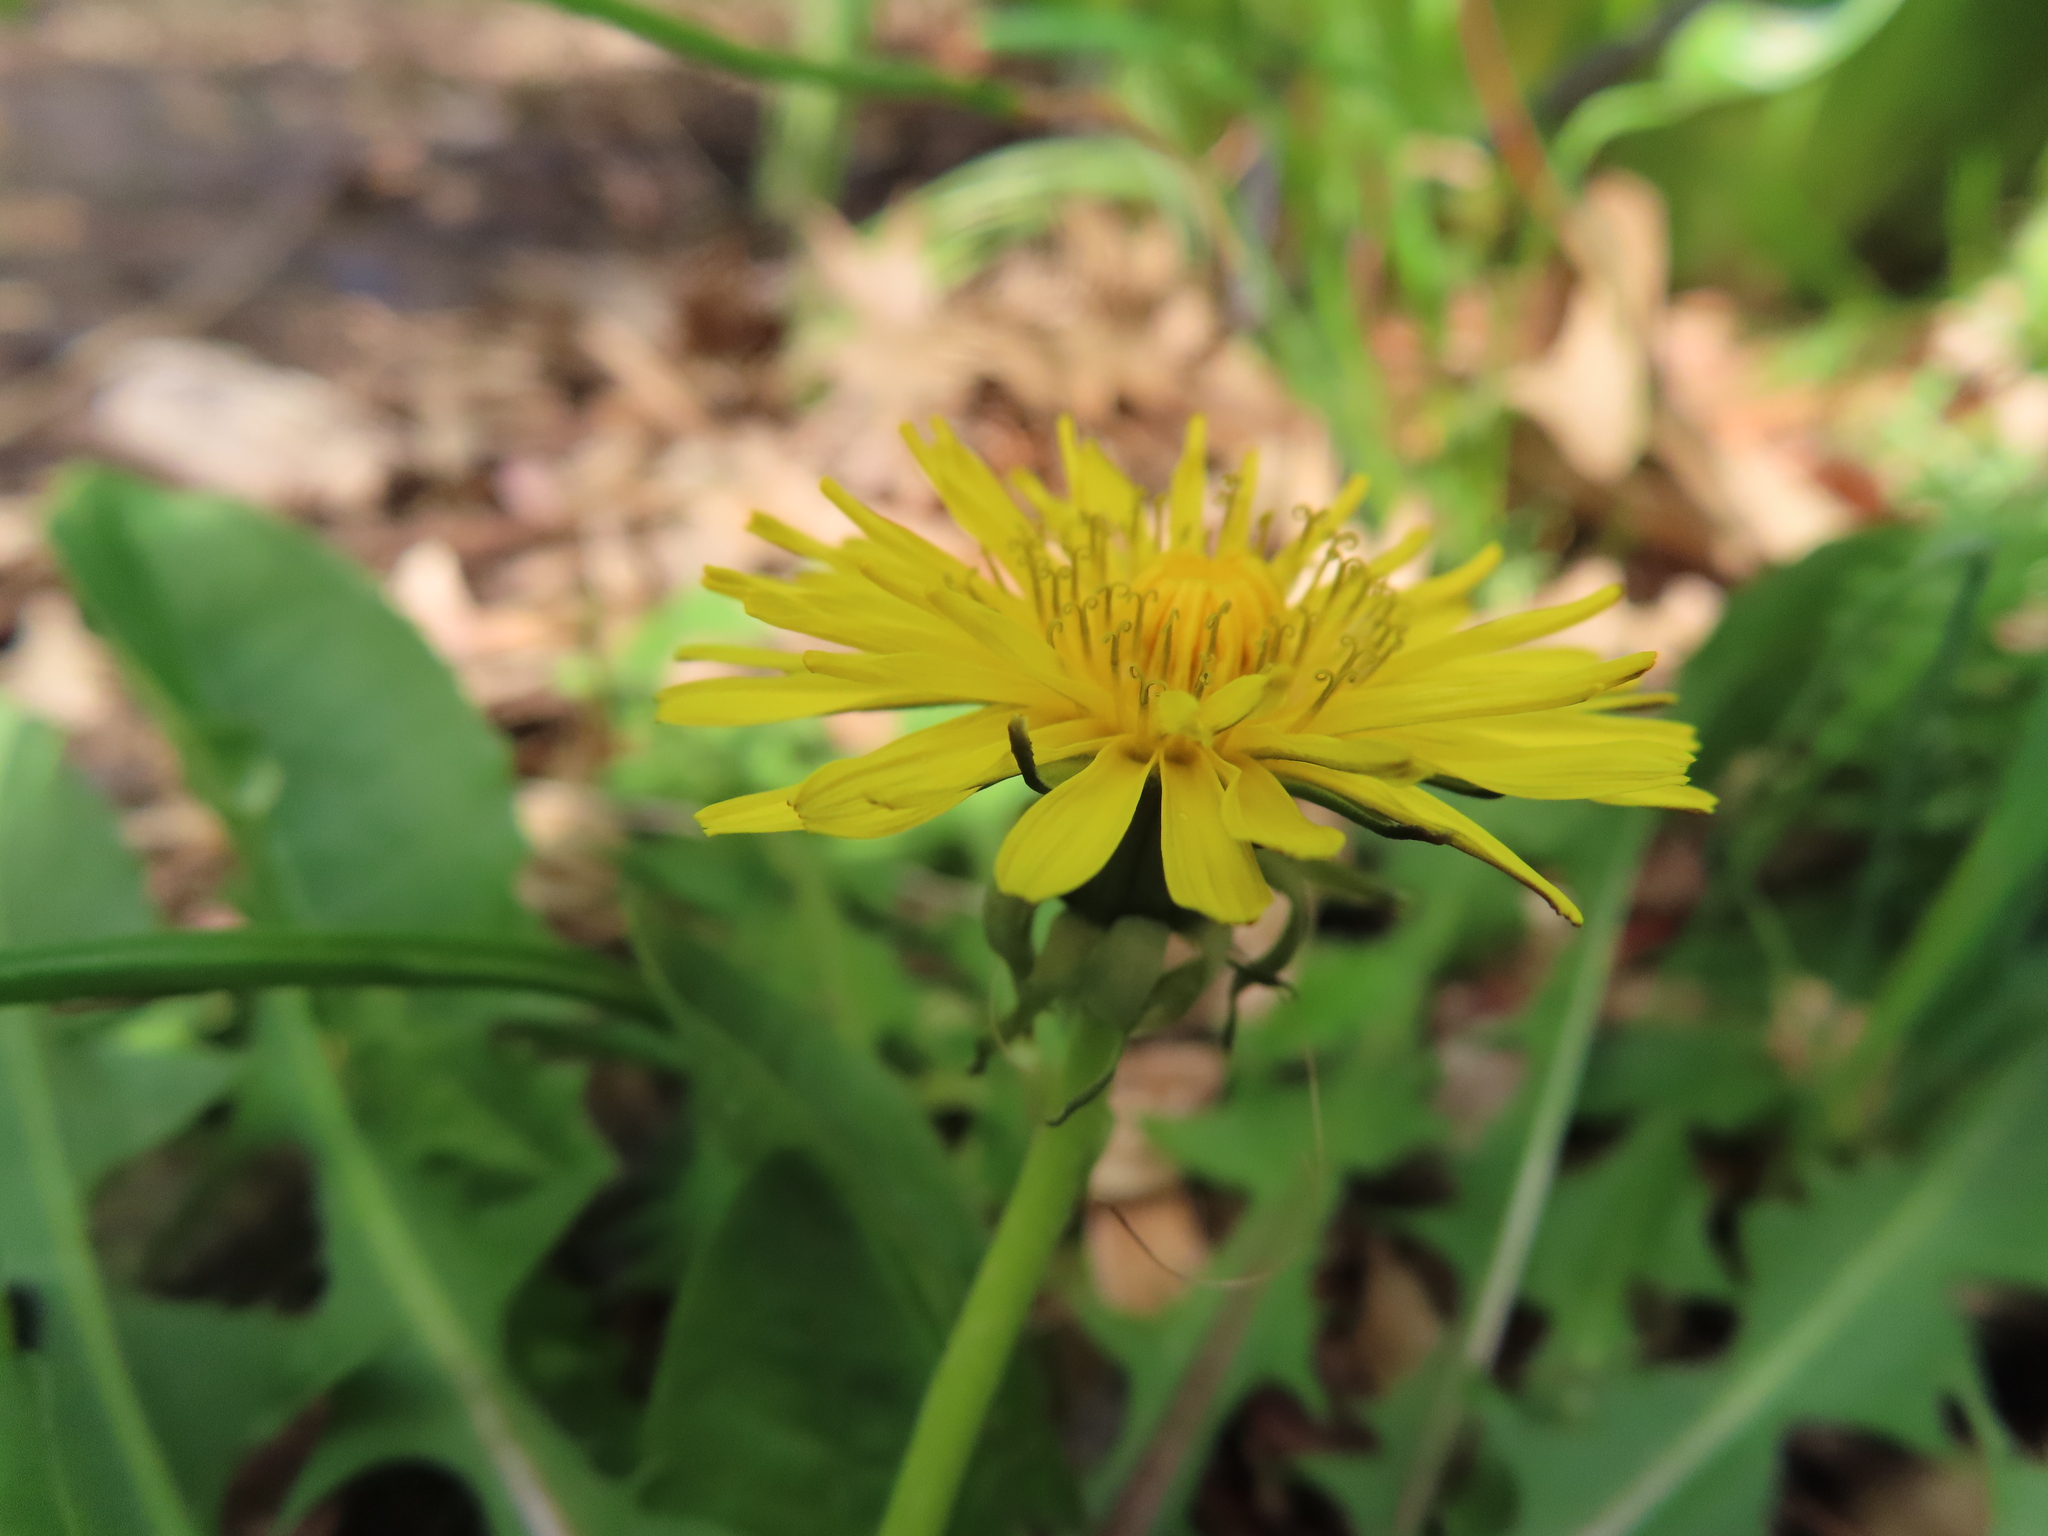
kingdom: Plantae
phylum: Tracheophyta
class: Magnoliopsida
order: Asterales
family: Asteraceae
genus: Taraxacum
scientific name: Taraxacum
